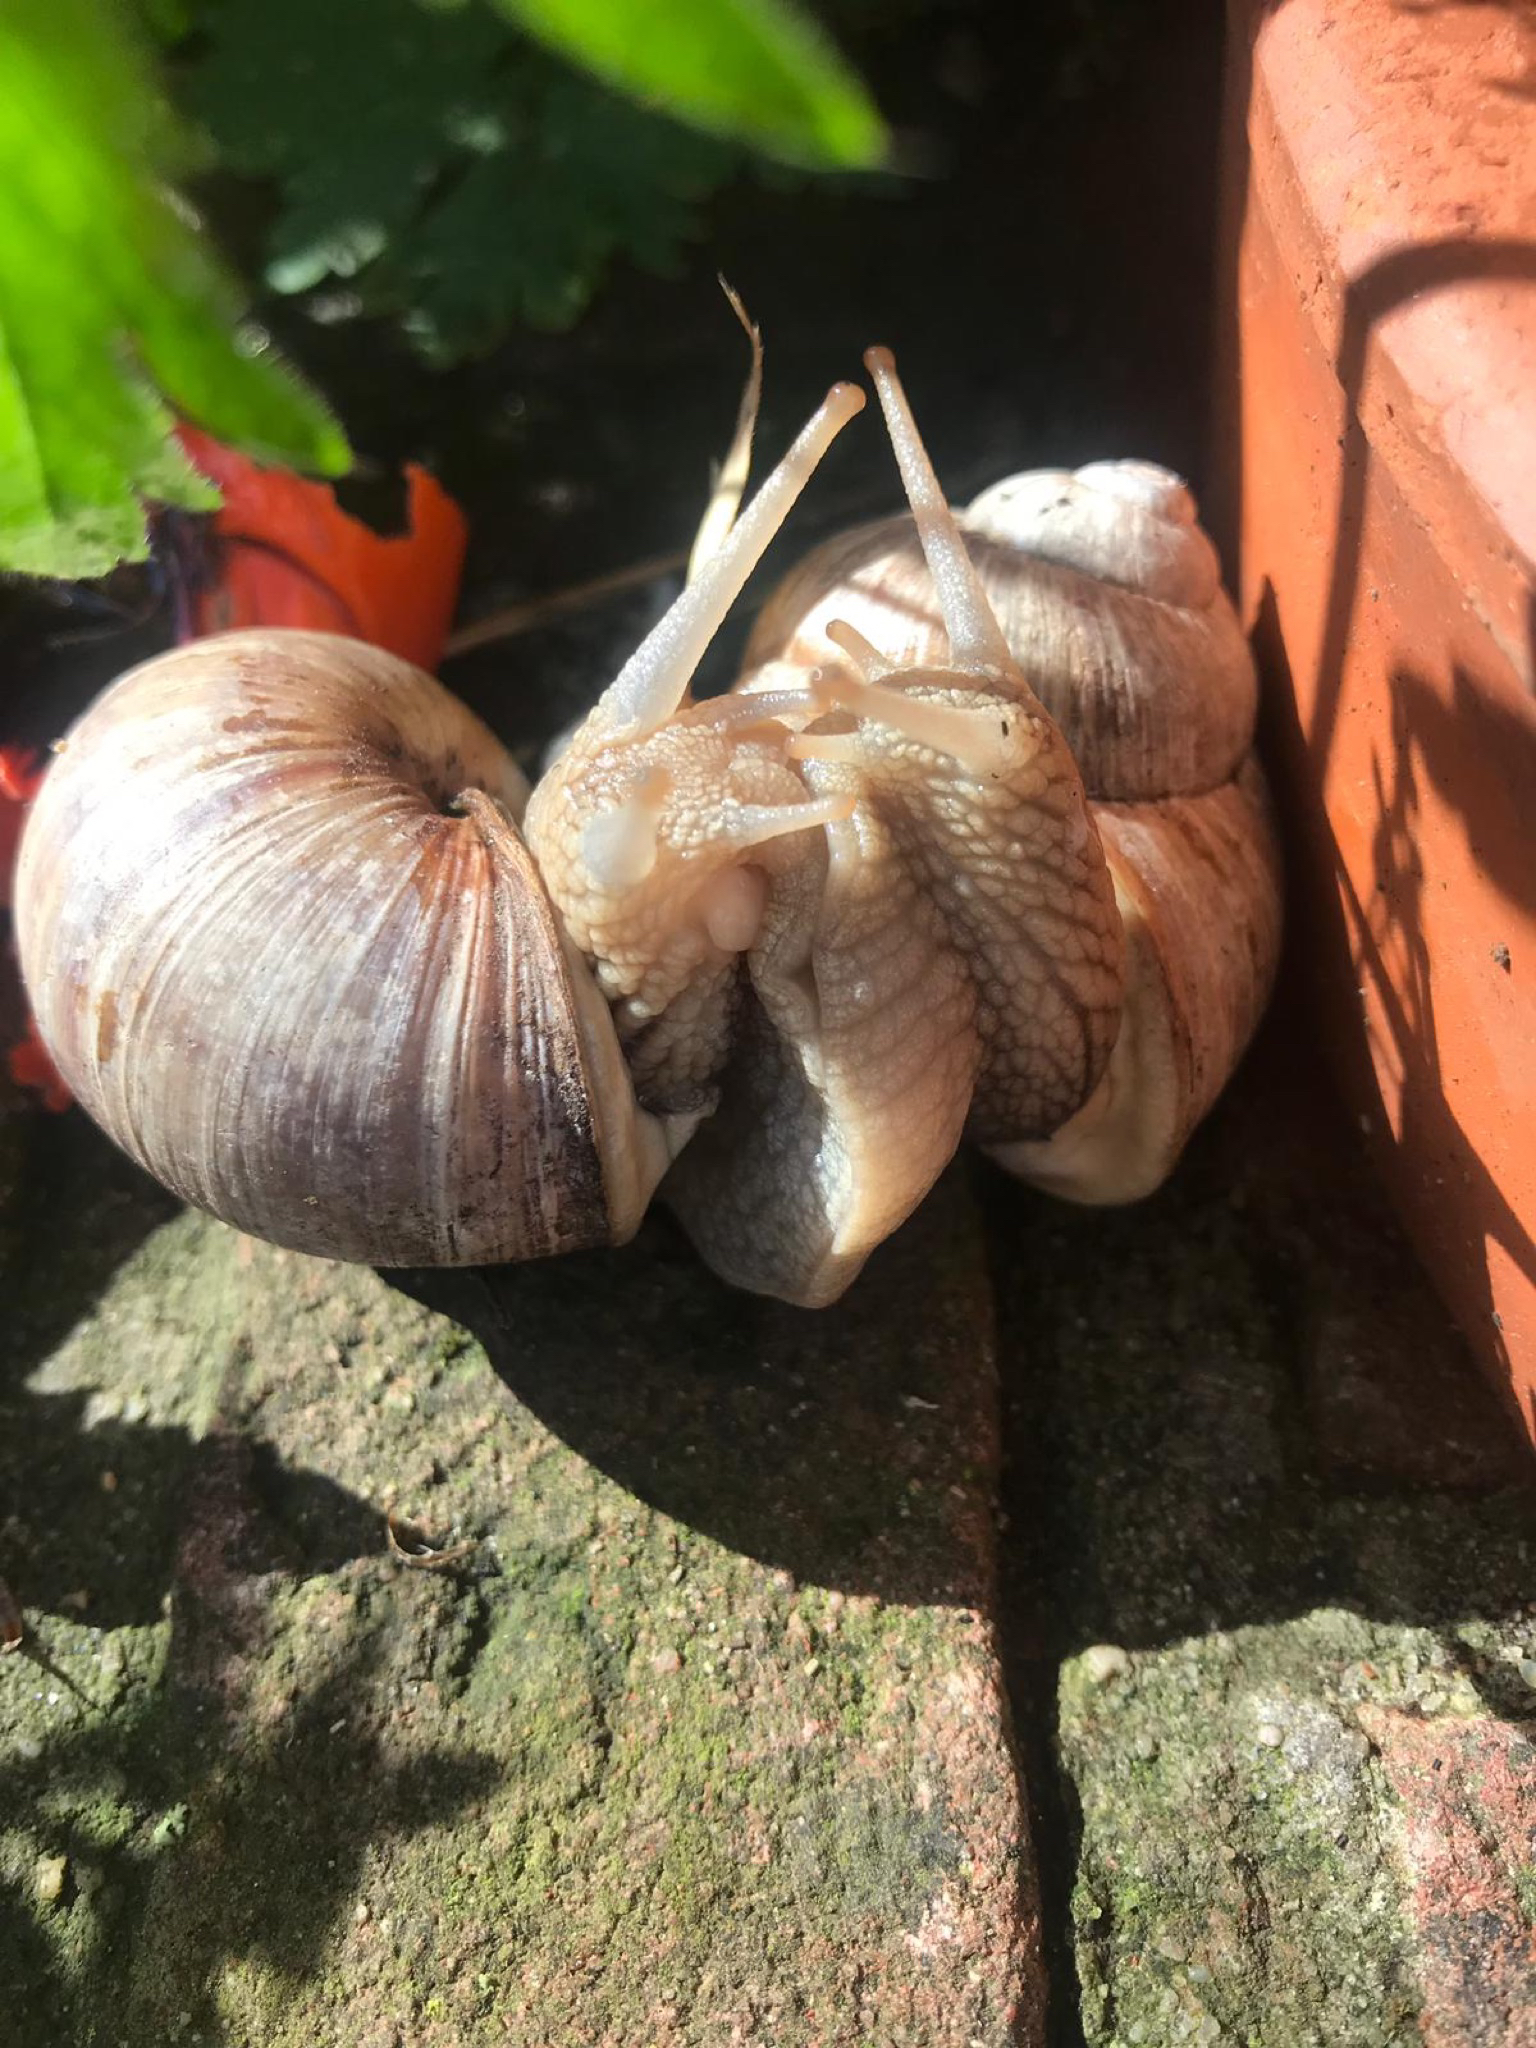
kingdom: Animalia
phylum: Mollusca
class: Gastropoda
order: Stylommatophora
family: Helicidae
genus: Helix
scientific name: Helix pomatia
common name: Roman snail
